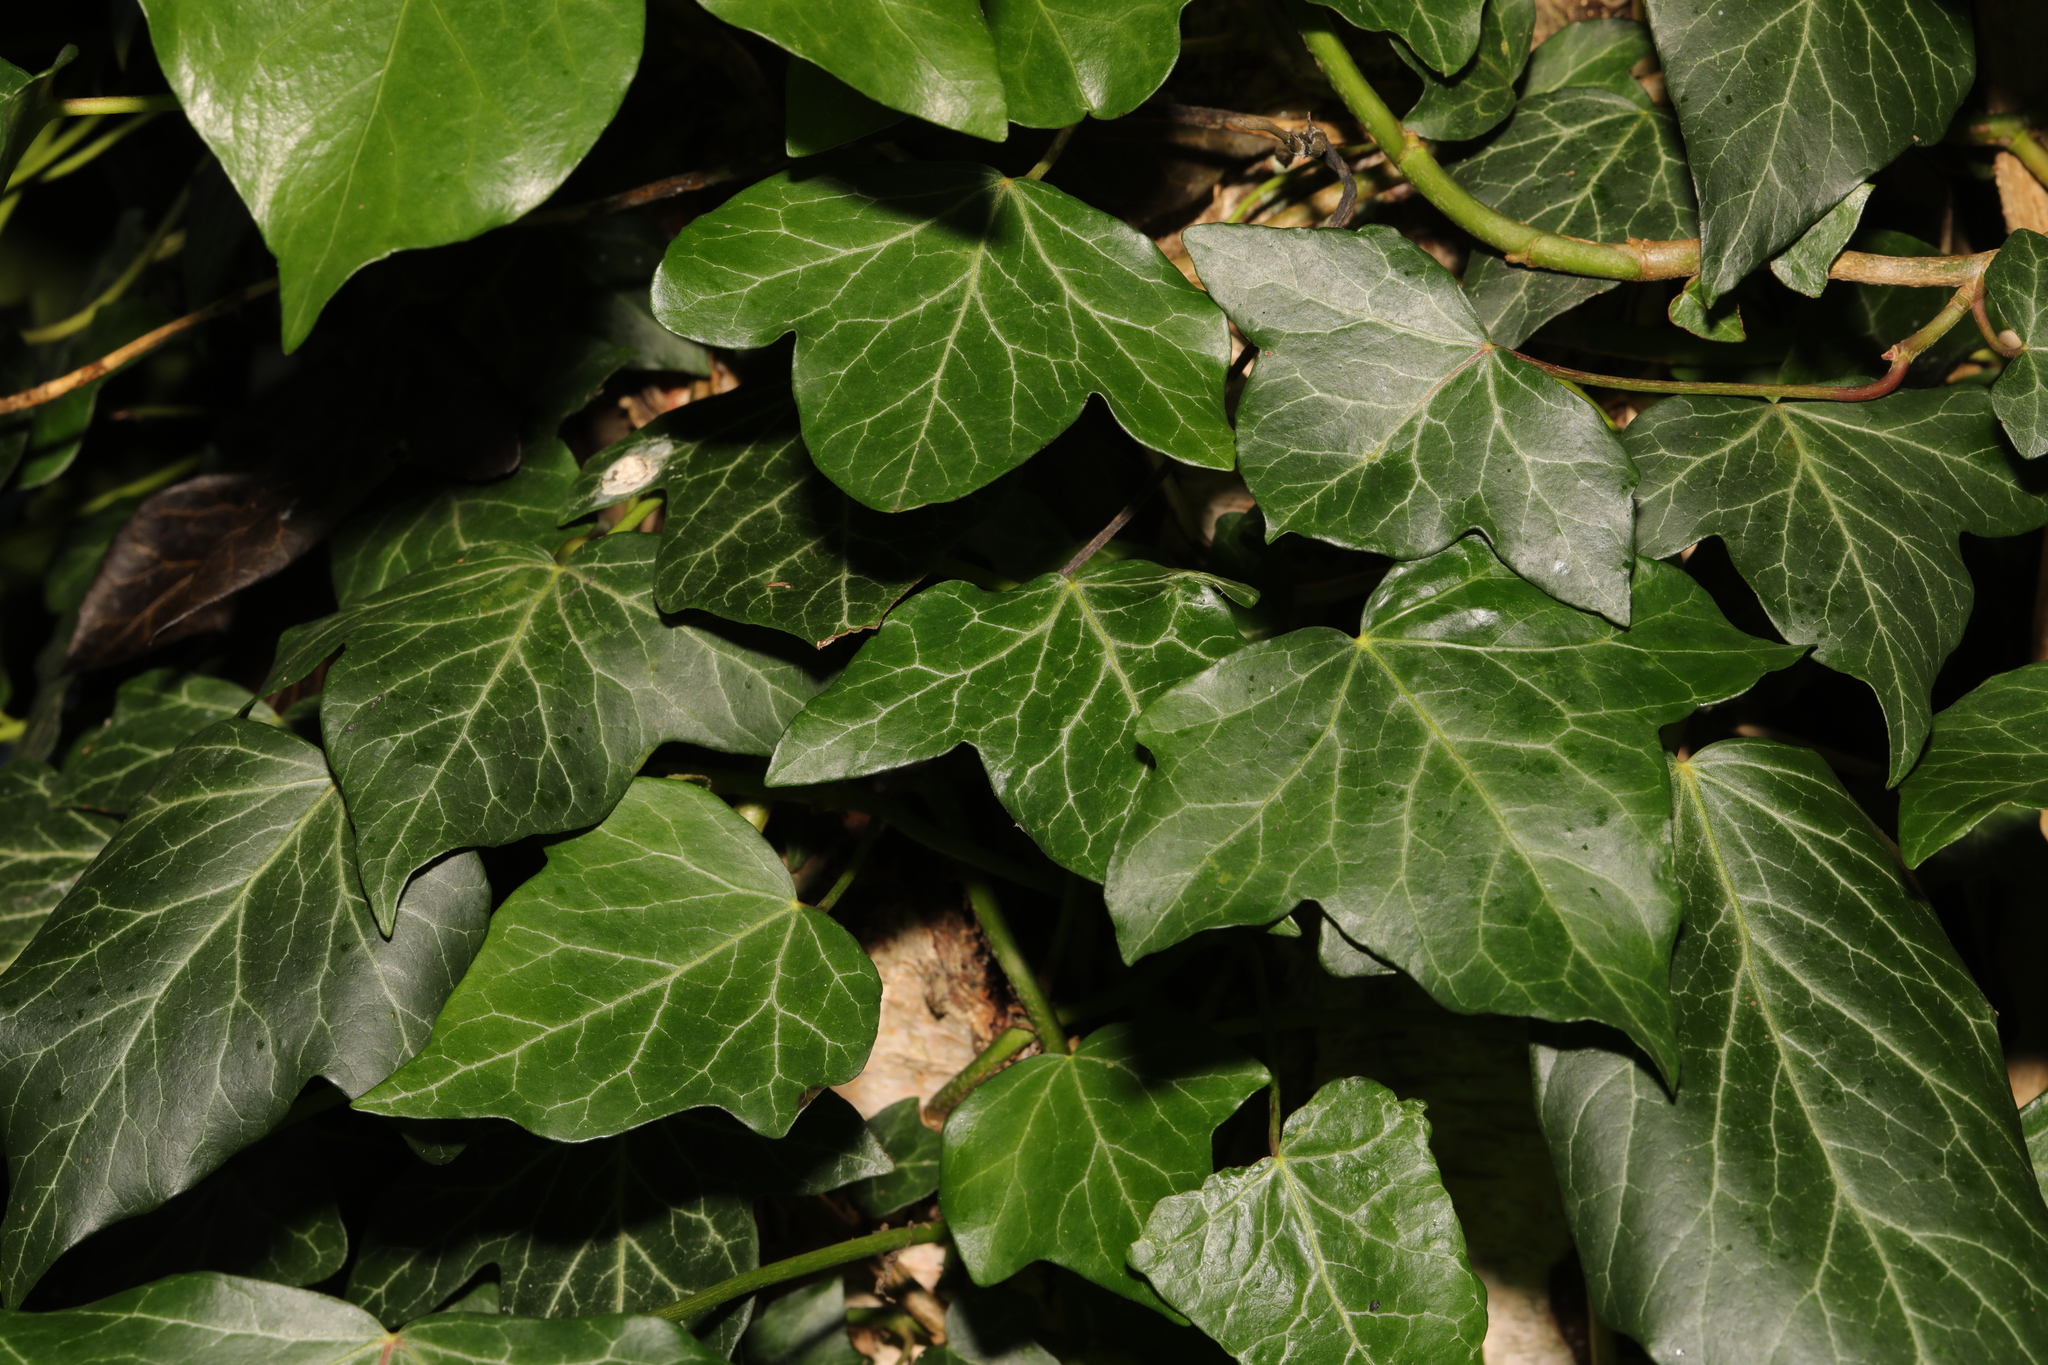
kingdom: Plantae
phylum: Tracheophyta
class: Magnoliopsida
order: Apiales
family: Araliaceae
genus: Hedera
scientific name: Hedera helix
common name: Ivy
